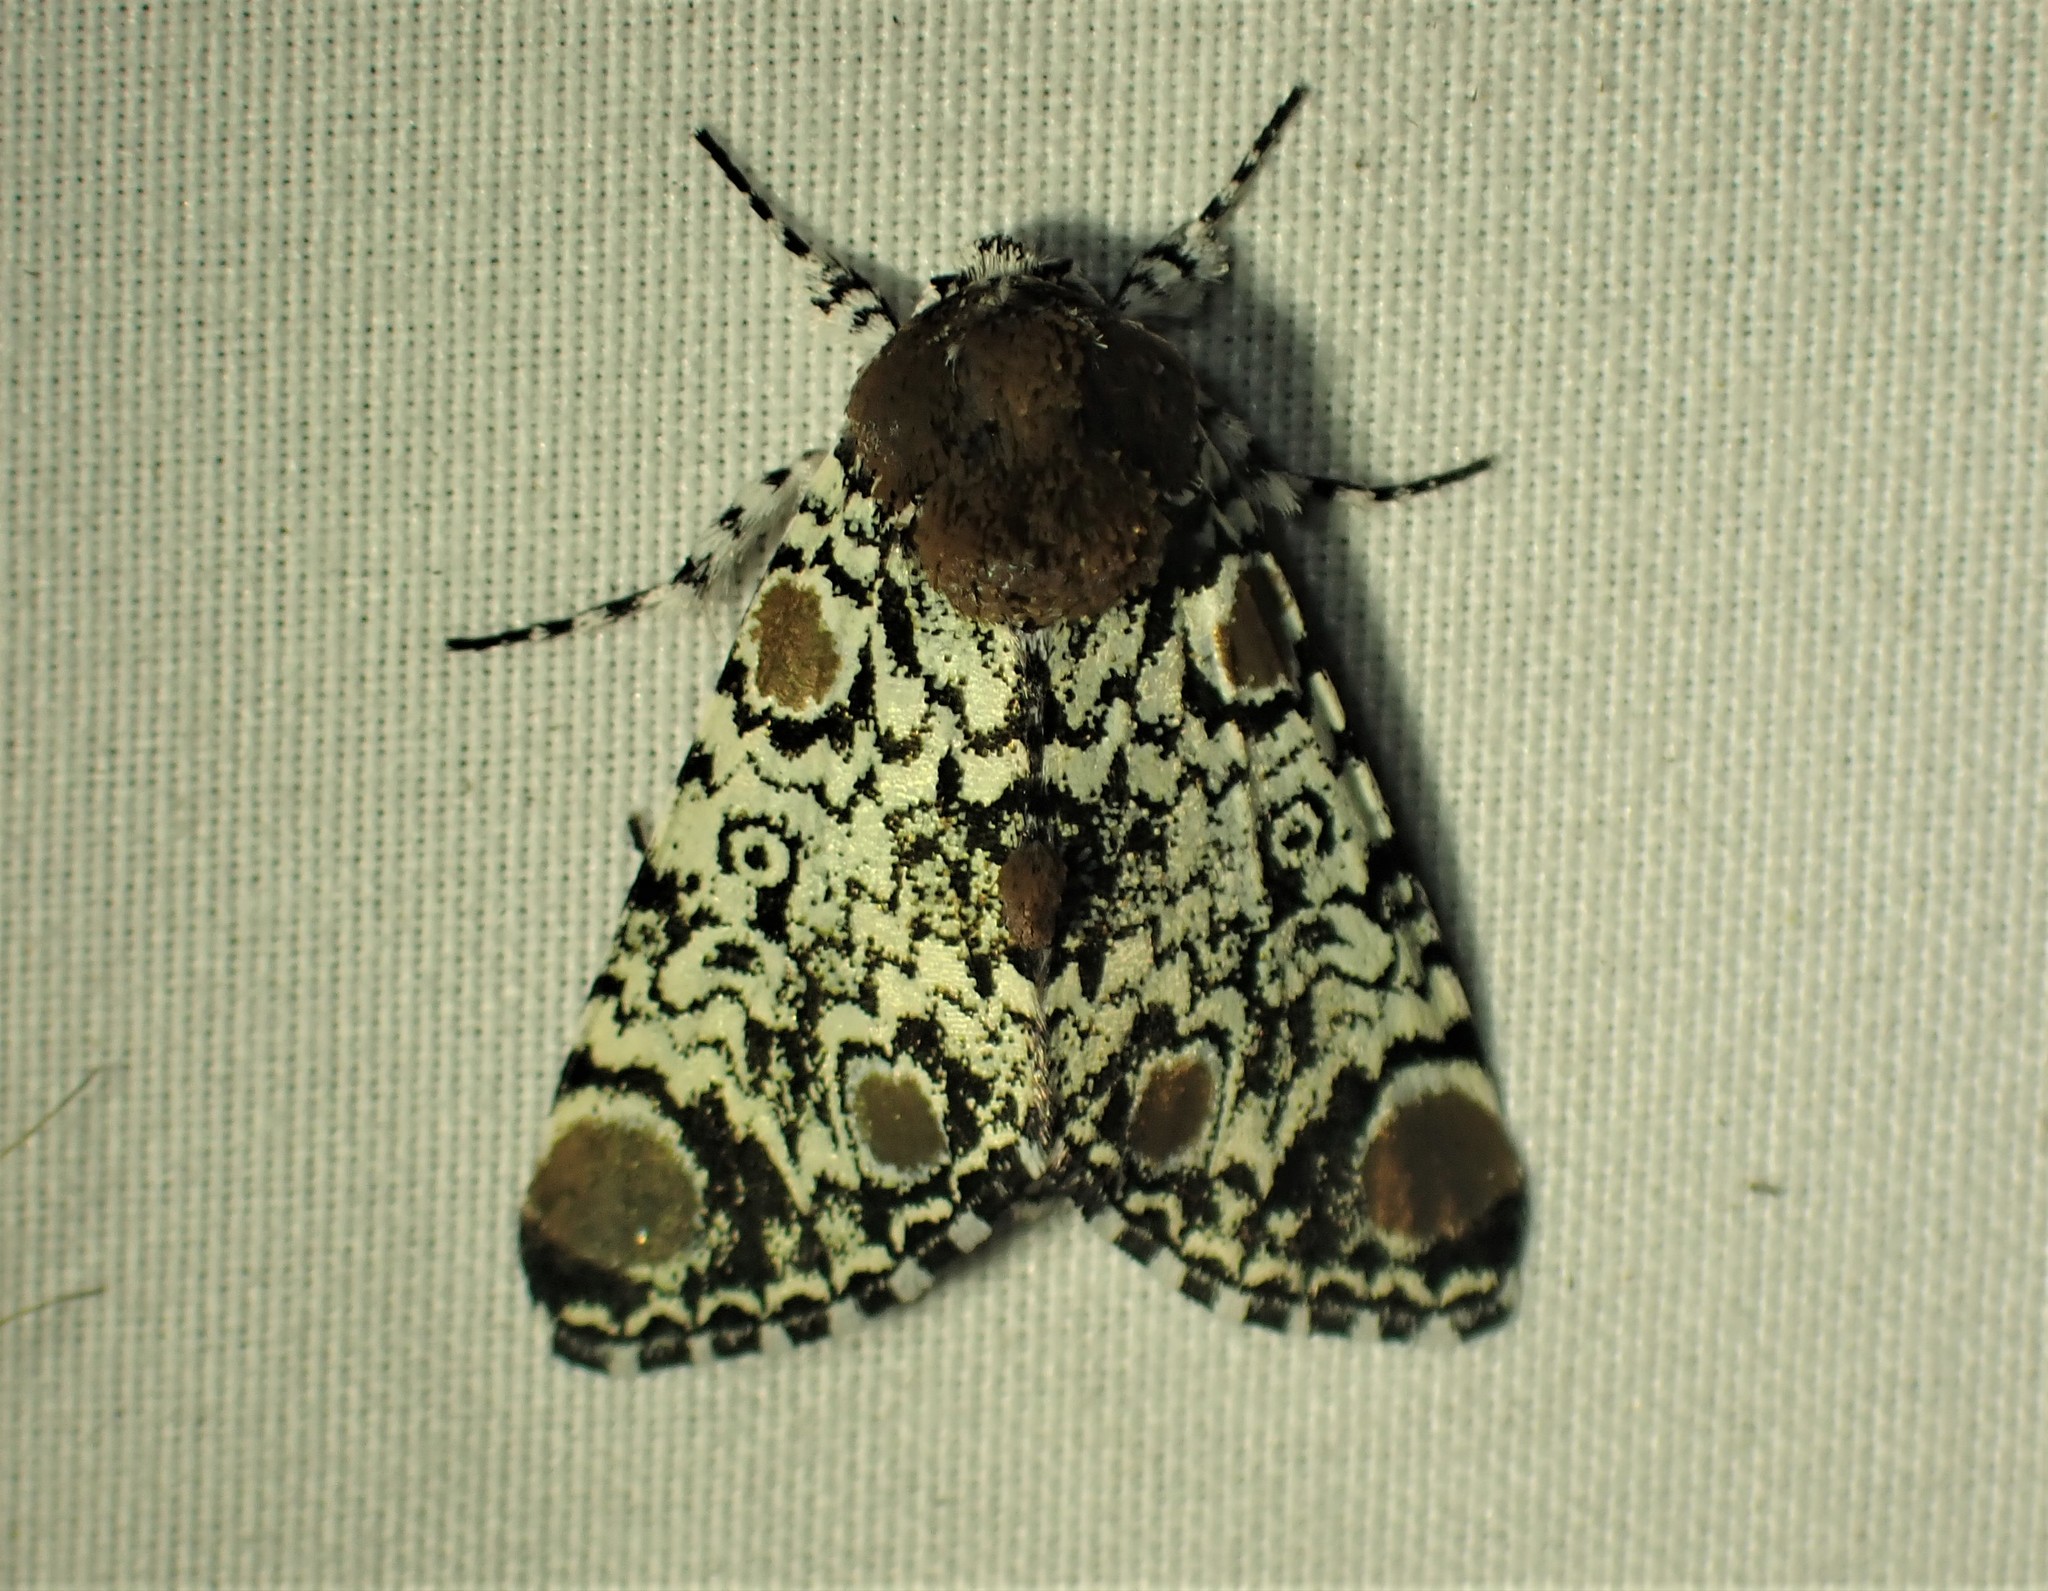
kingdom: Animalia
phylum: Arthropoda
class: Insecta
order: Lepidoptera
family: Noctuidae
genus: Harrisimemna
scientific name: Harrisimemna trisignata
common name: Harris threespot
